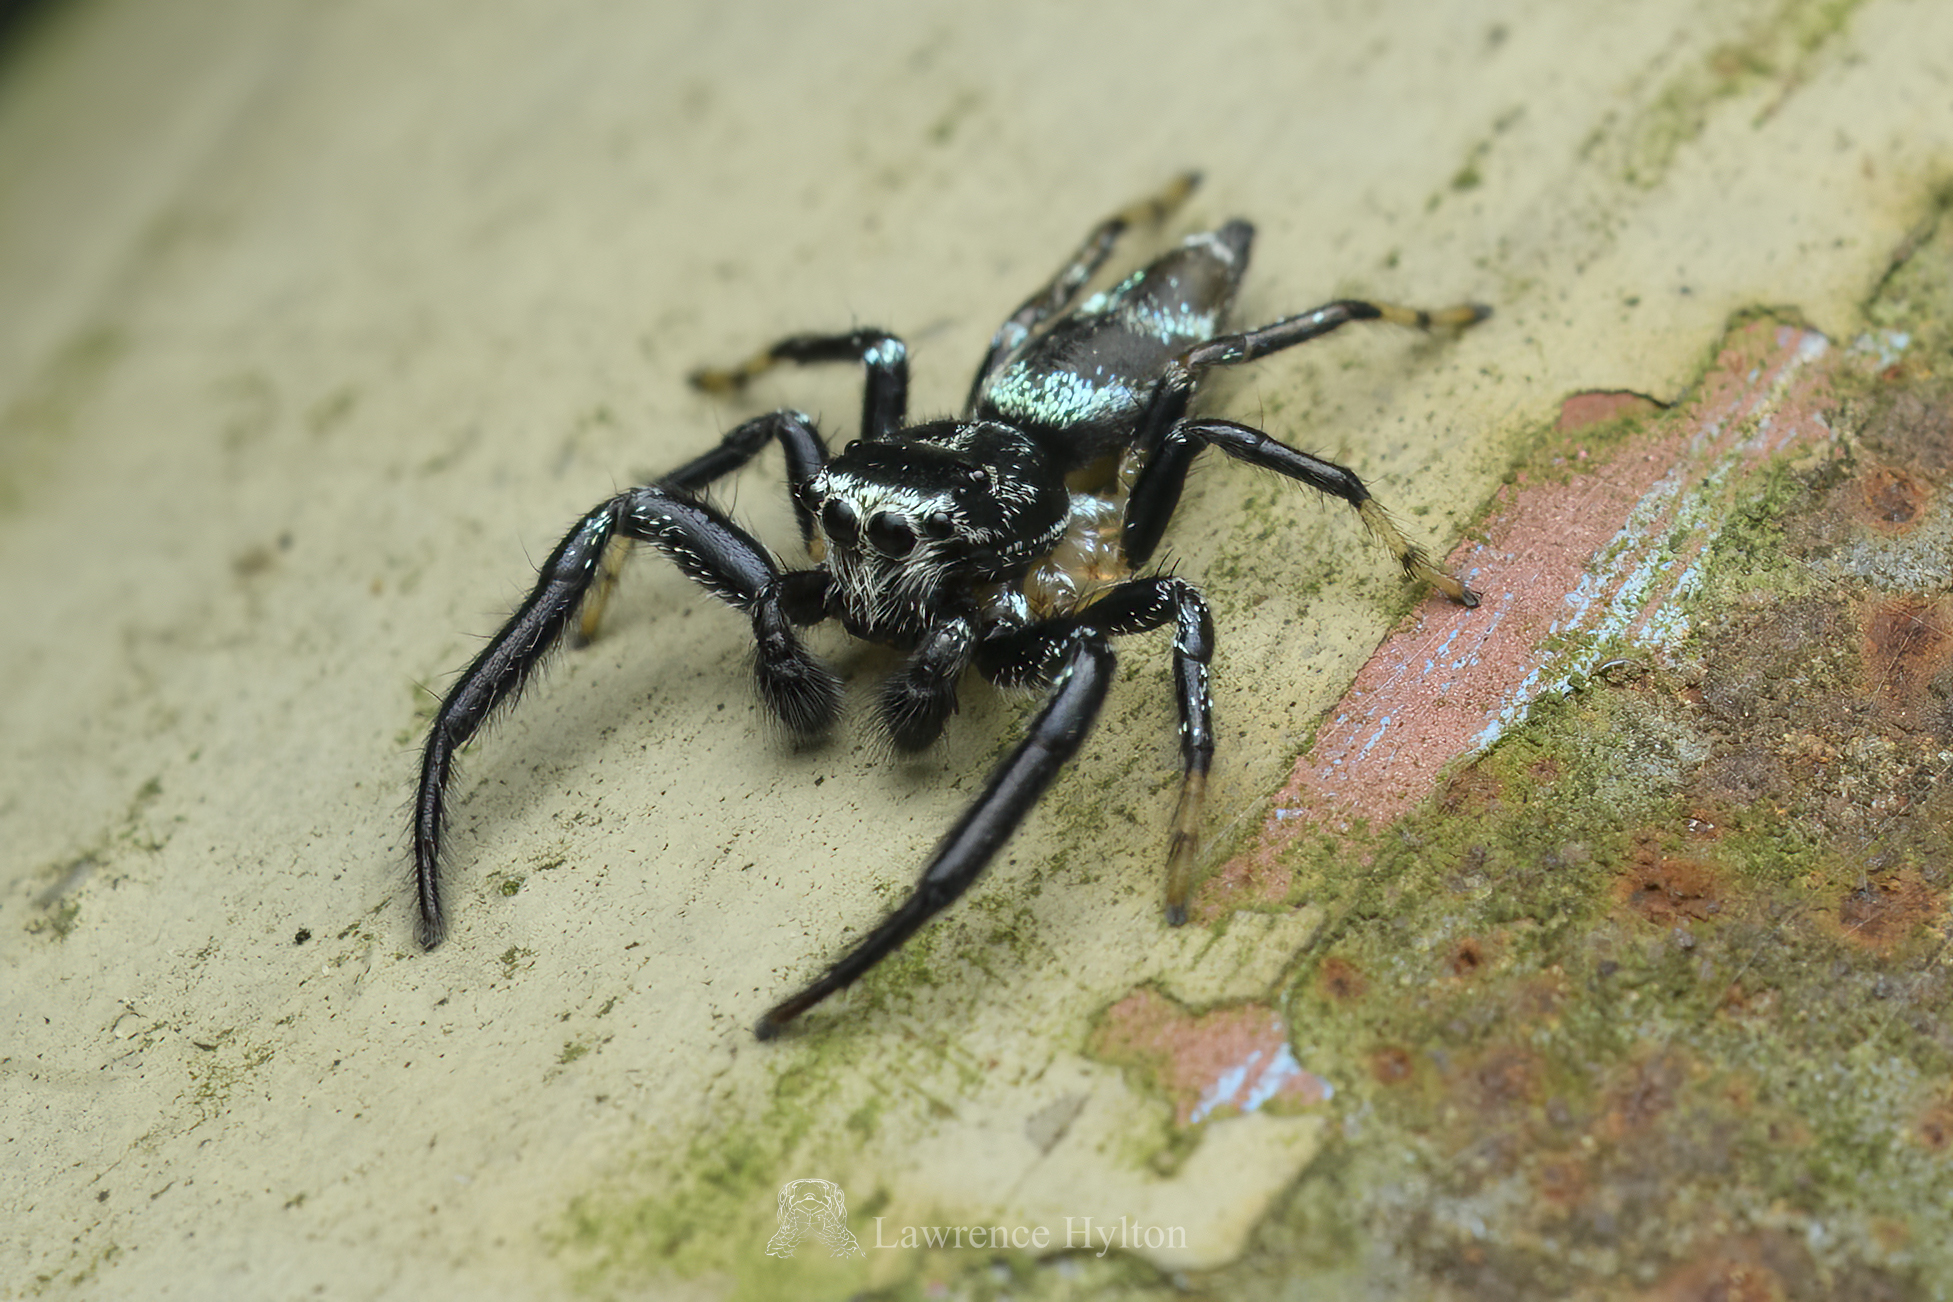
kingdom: Animalia
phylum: Arthropoda
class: Arachnida
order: Araneae
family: Salticidae
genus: Thiania
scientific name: Thiania bhamoensis
